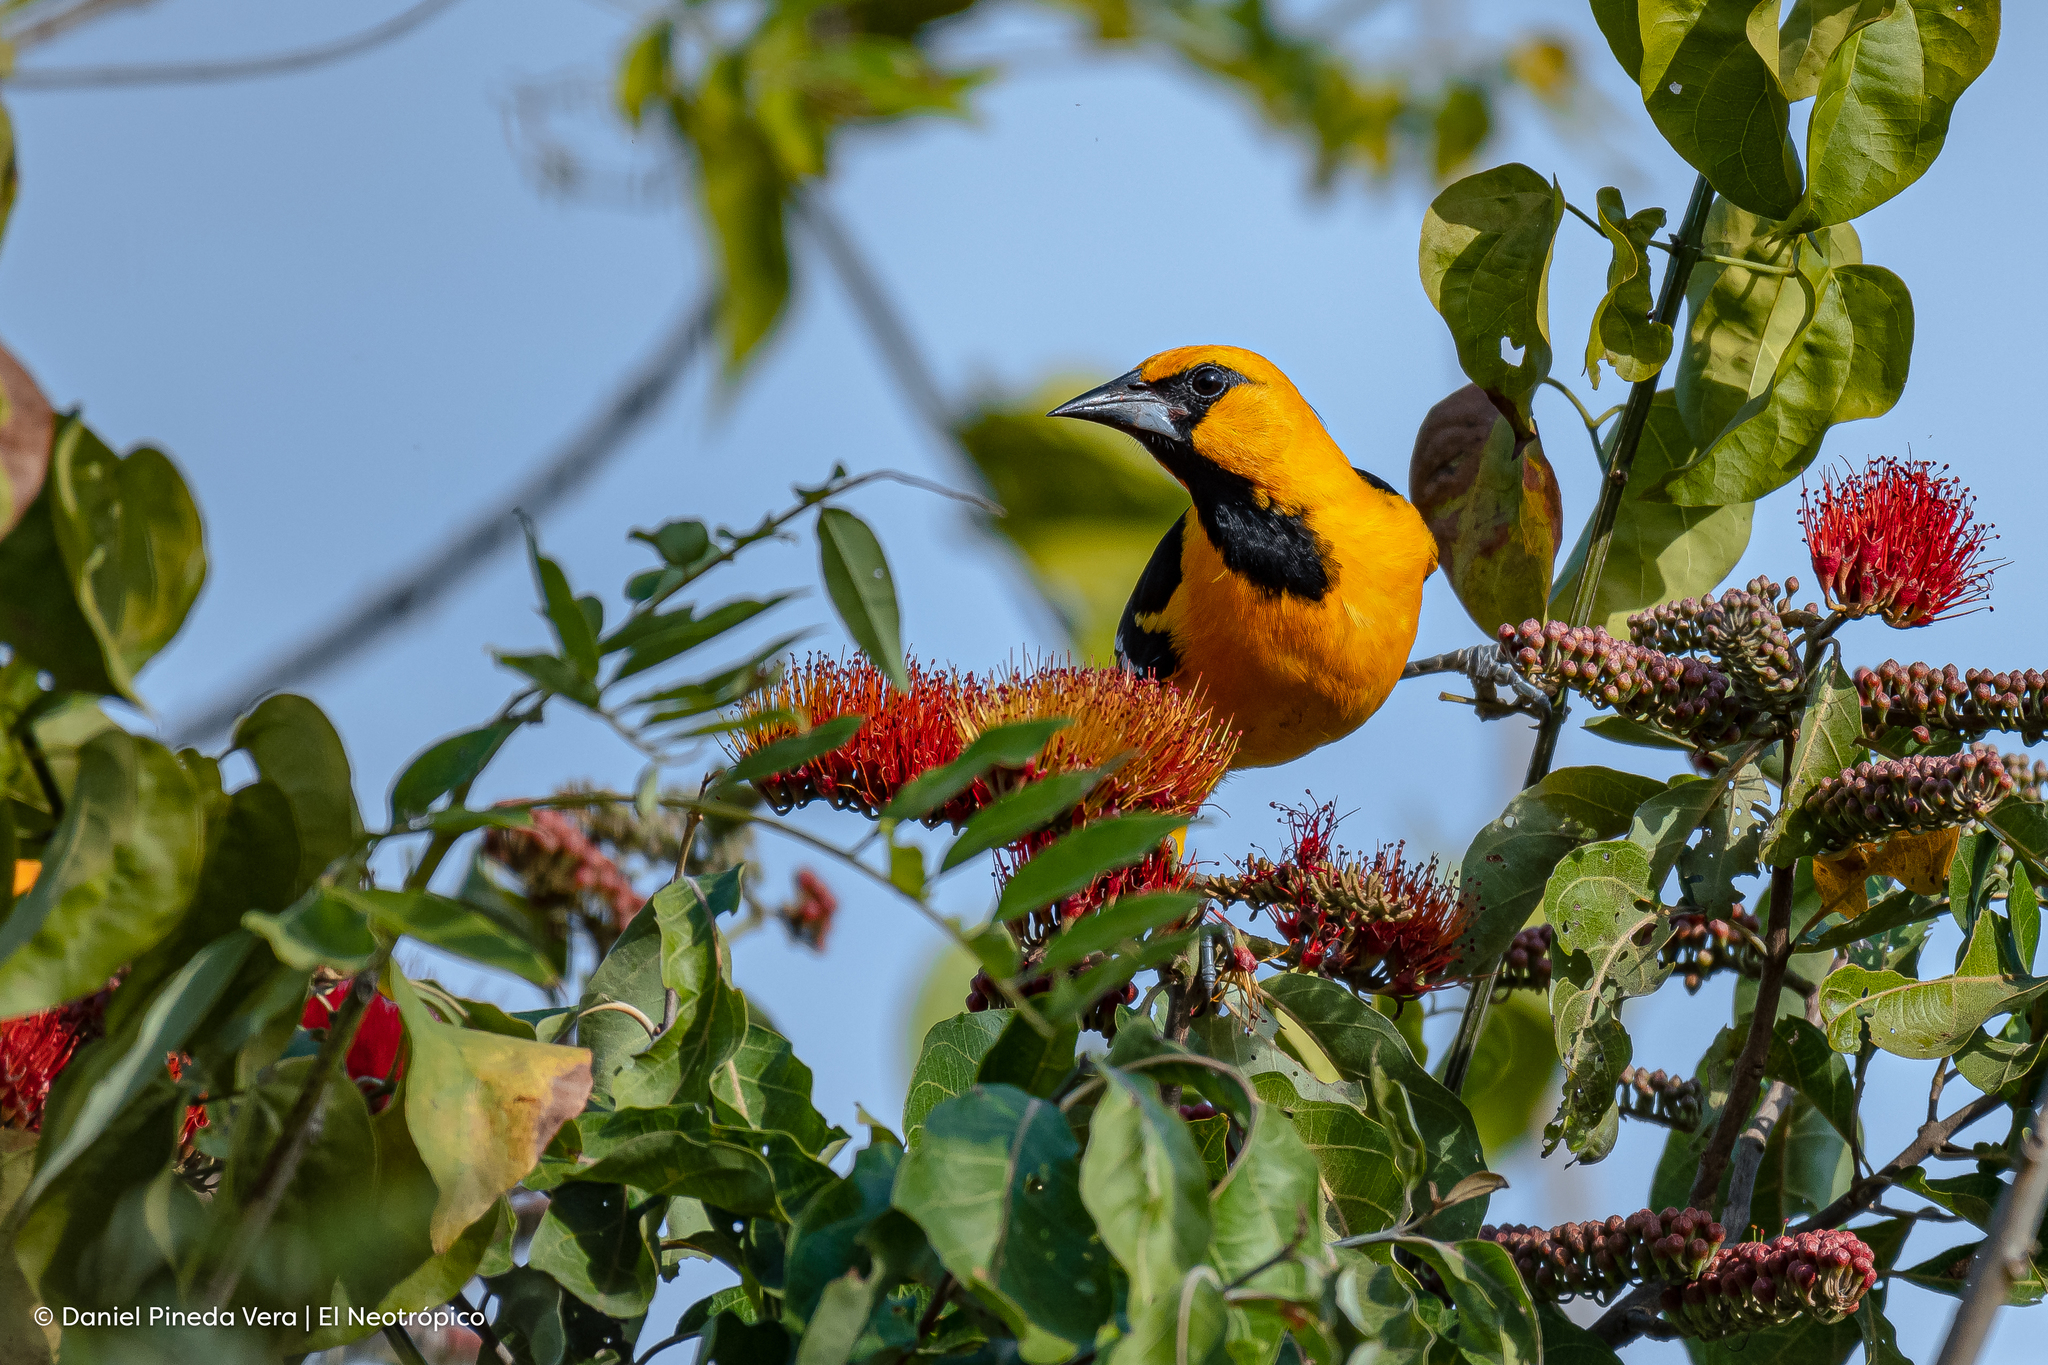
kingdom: Animalia
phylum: Chordata
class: Aves
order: Passeriformes
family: Icteridae
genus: Icterus
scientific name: Icterus gularis
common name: Altamira oriole
